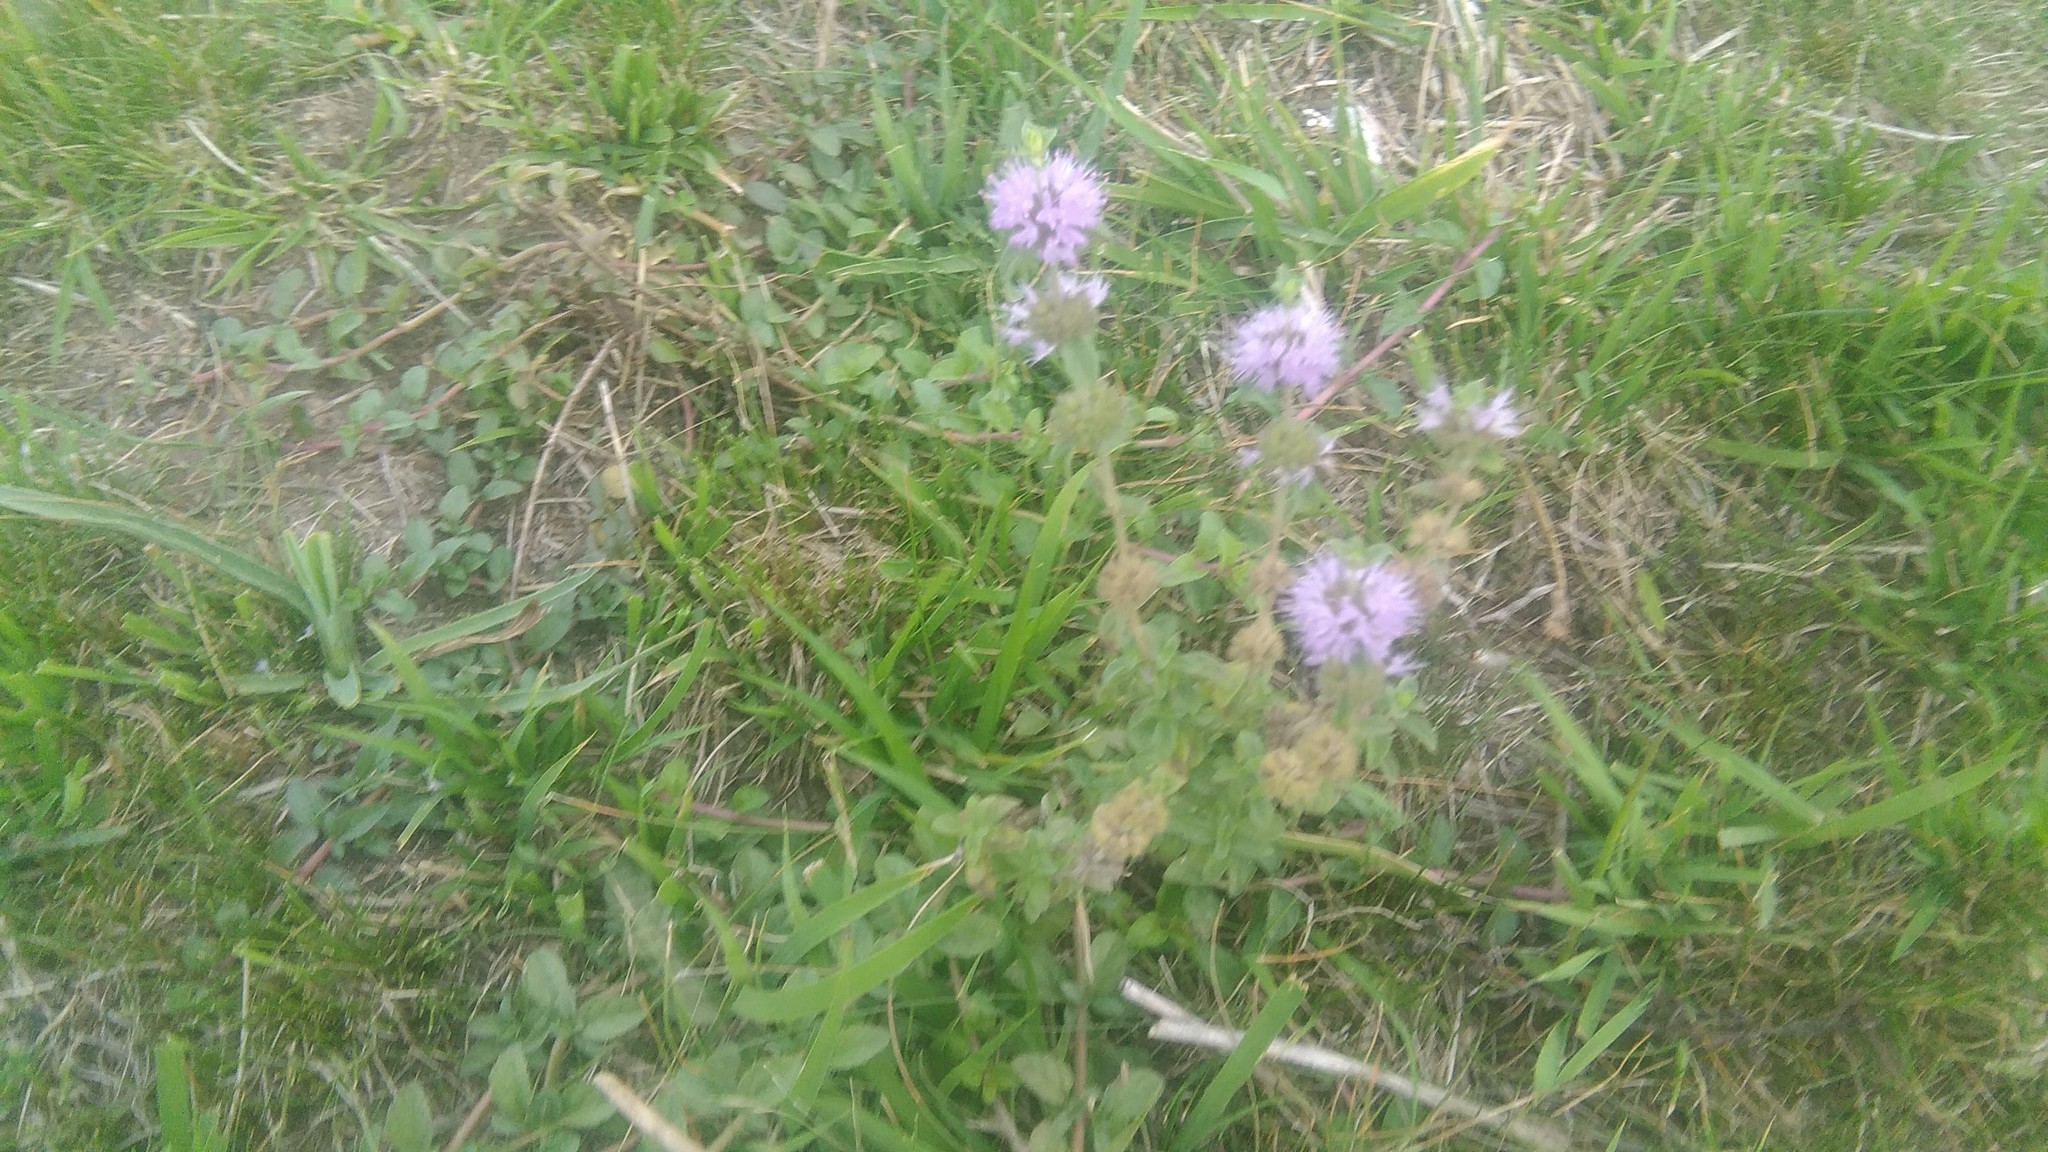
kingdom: Plantae
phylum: Tracheophyta
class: Magnoliopsida
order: Lamiales
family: Lamiaceae
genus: Mentha
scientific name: Mentha pulegium
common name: Pennyroyal
